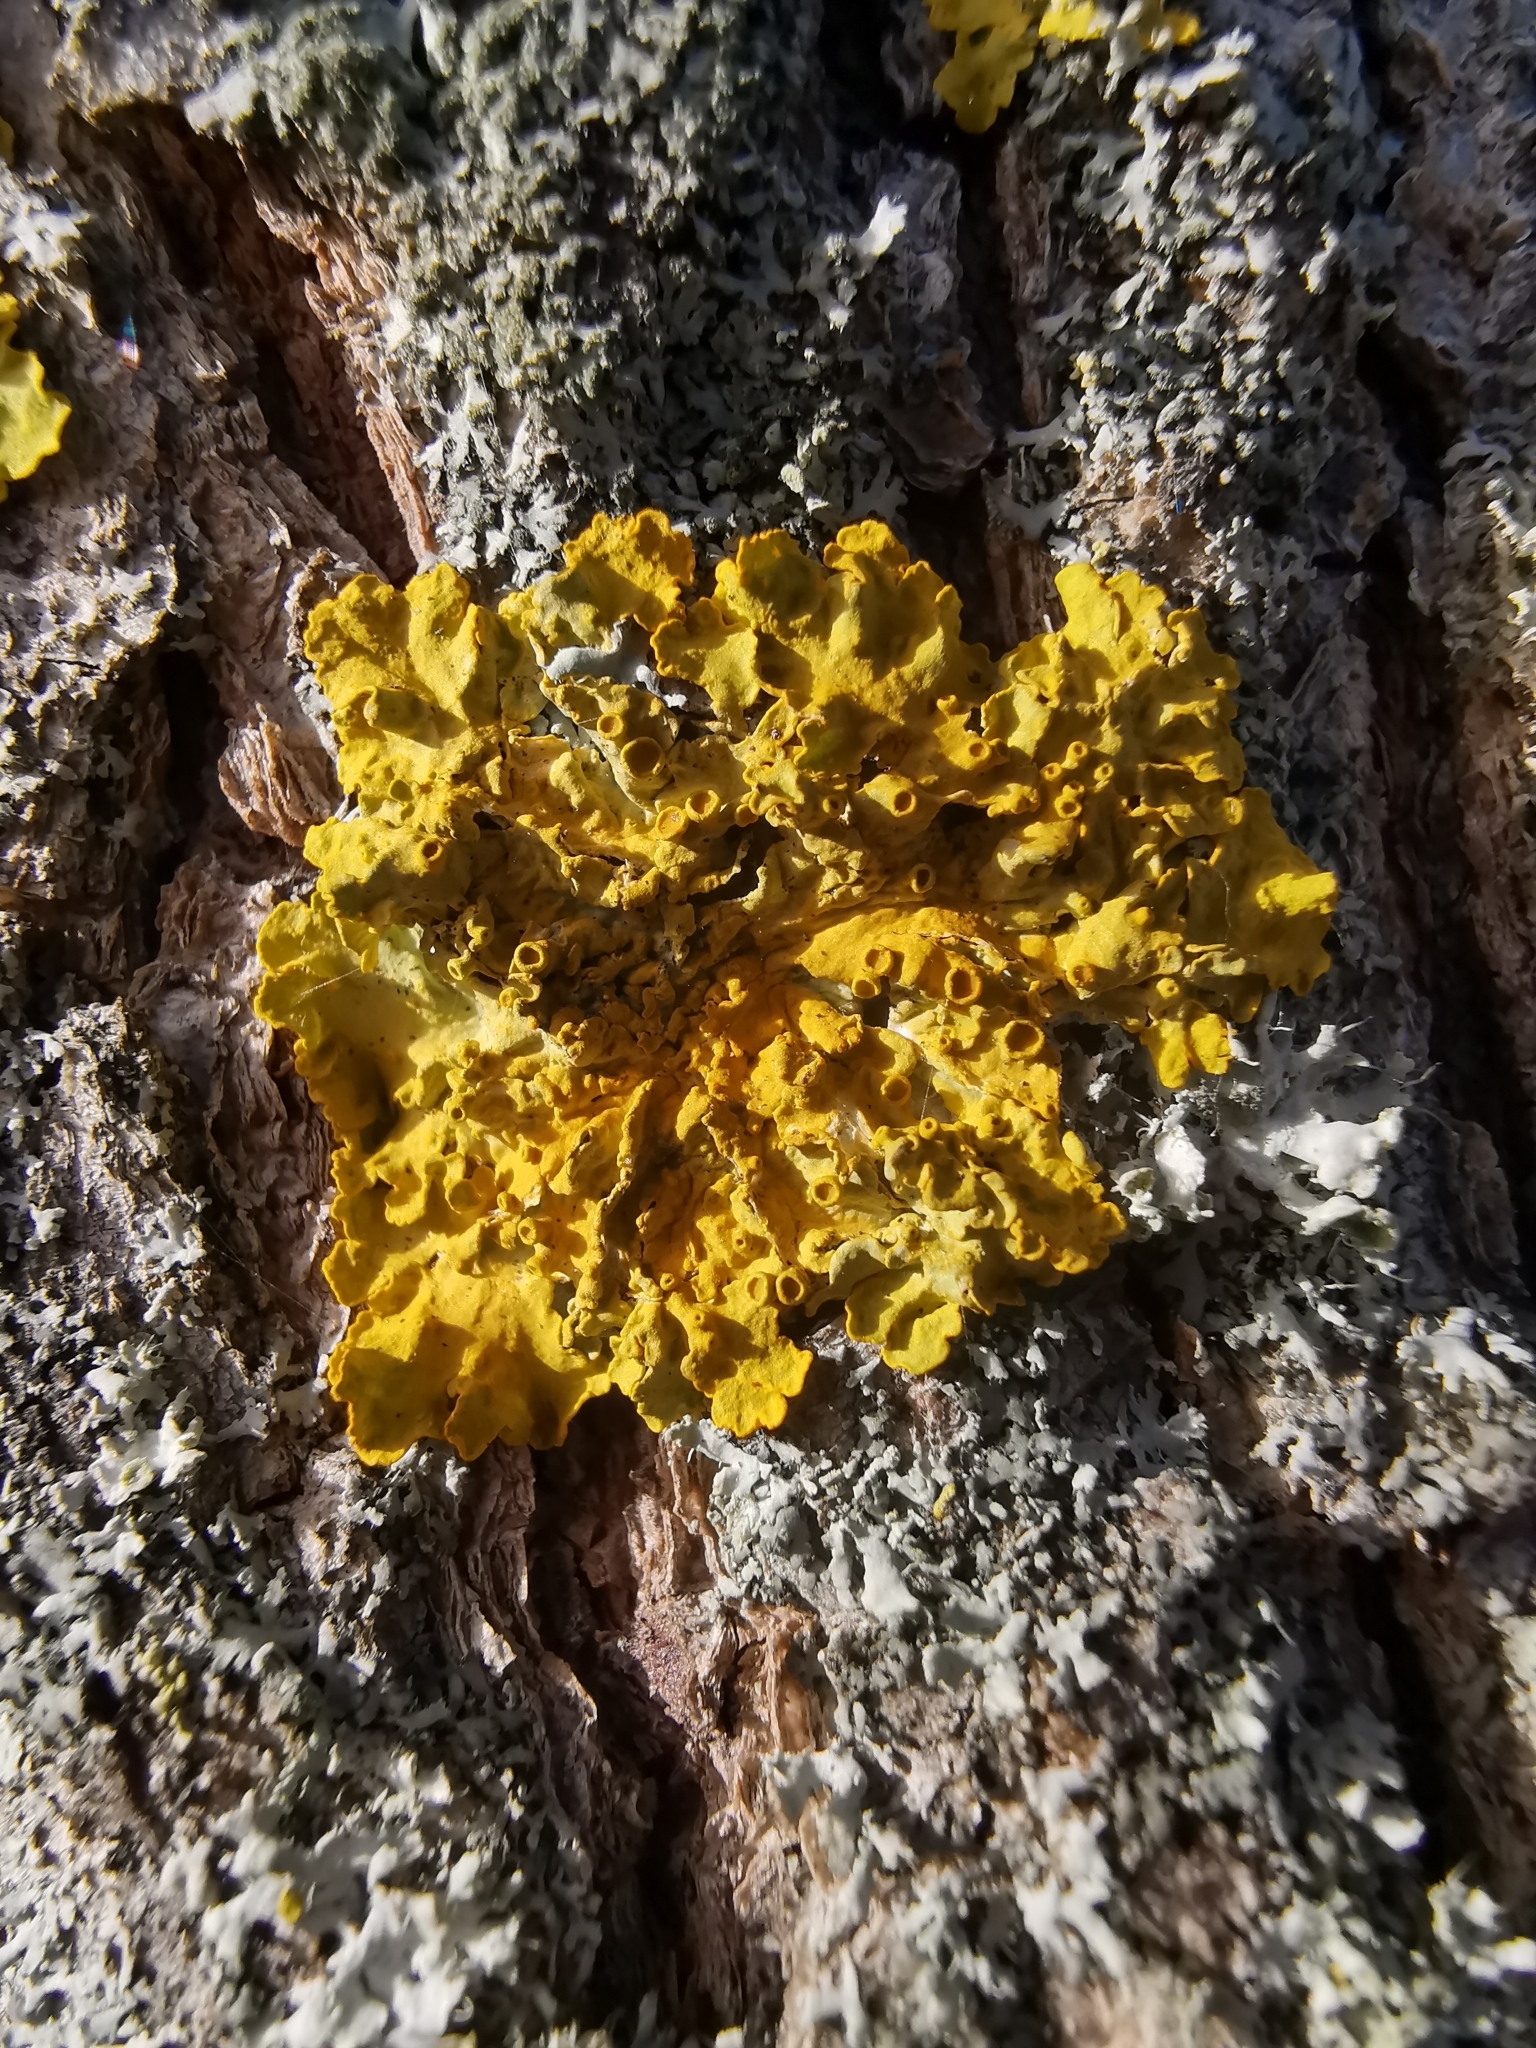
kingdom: Fungi
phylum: Ascomycota
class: Lecanoromycetes
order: Teloschistales
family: Teloschistaceae
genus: Xanthoria
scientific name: Xanthoria parietina
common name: Common orange lichen
